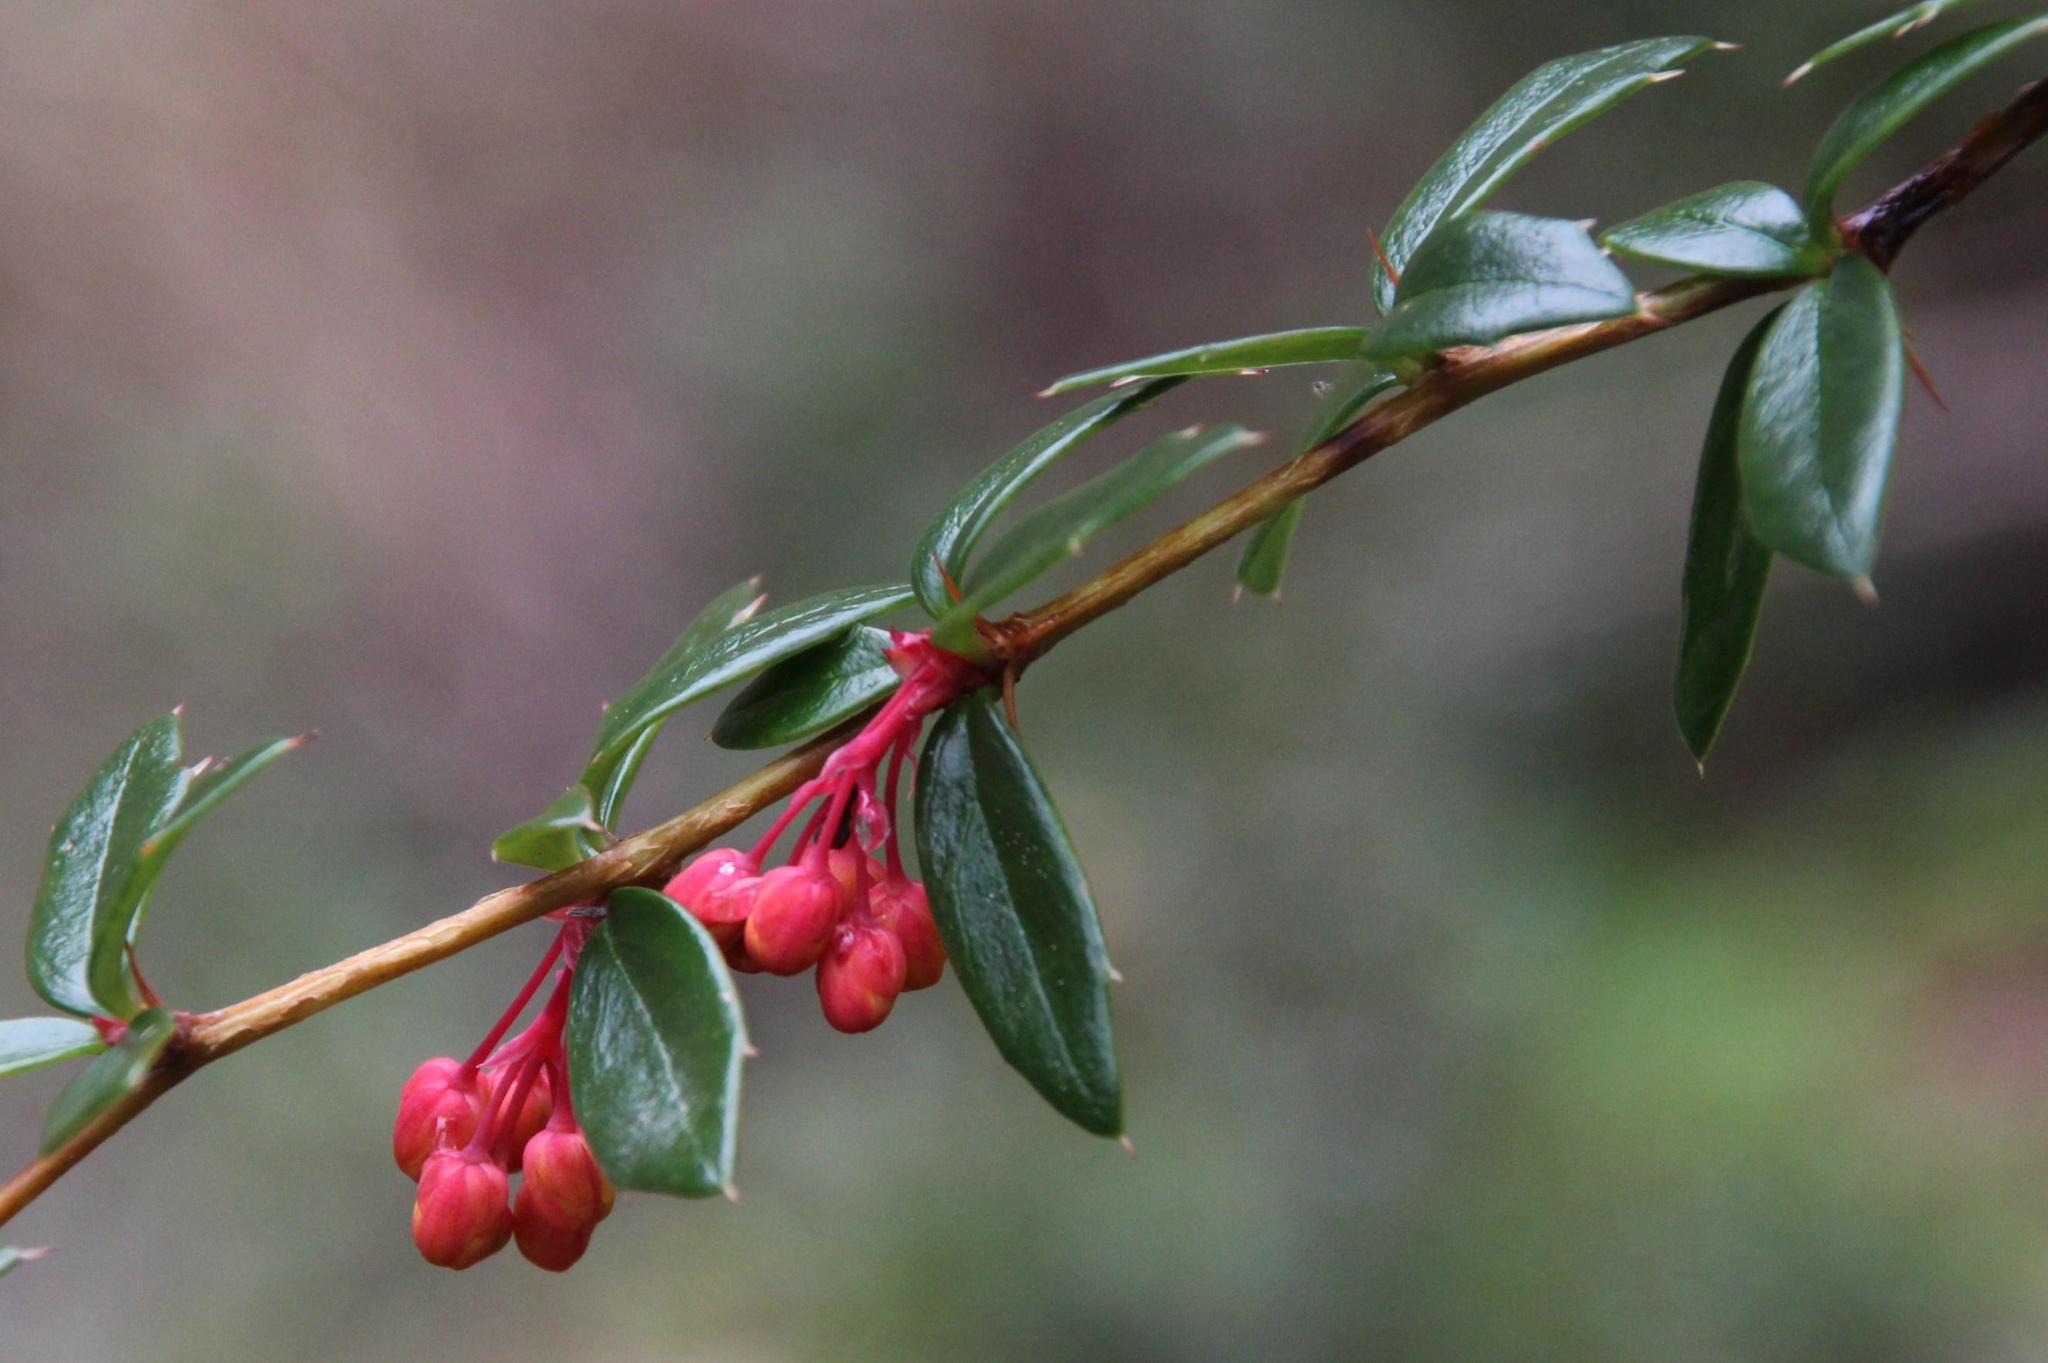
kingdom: Plantae
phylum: Tracheophyta
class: Magnoliopsida
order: Ranunculales
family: Berberidaceae
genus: Berberis
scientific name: Berberis trigona
